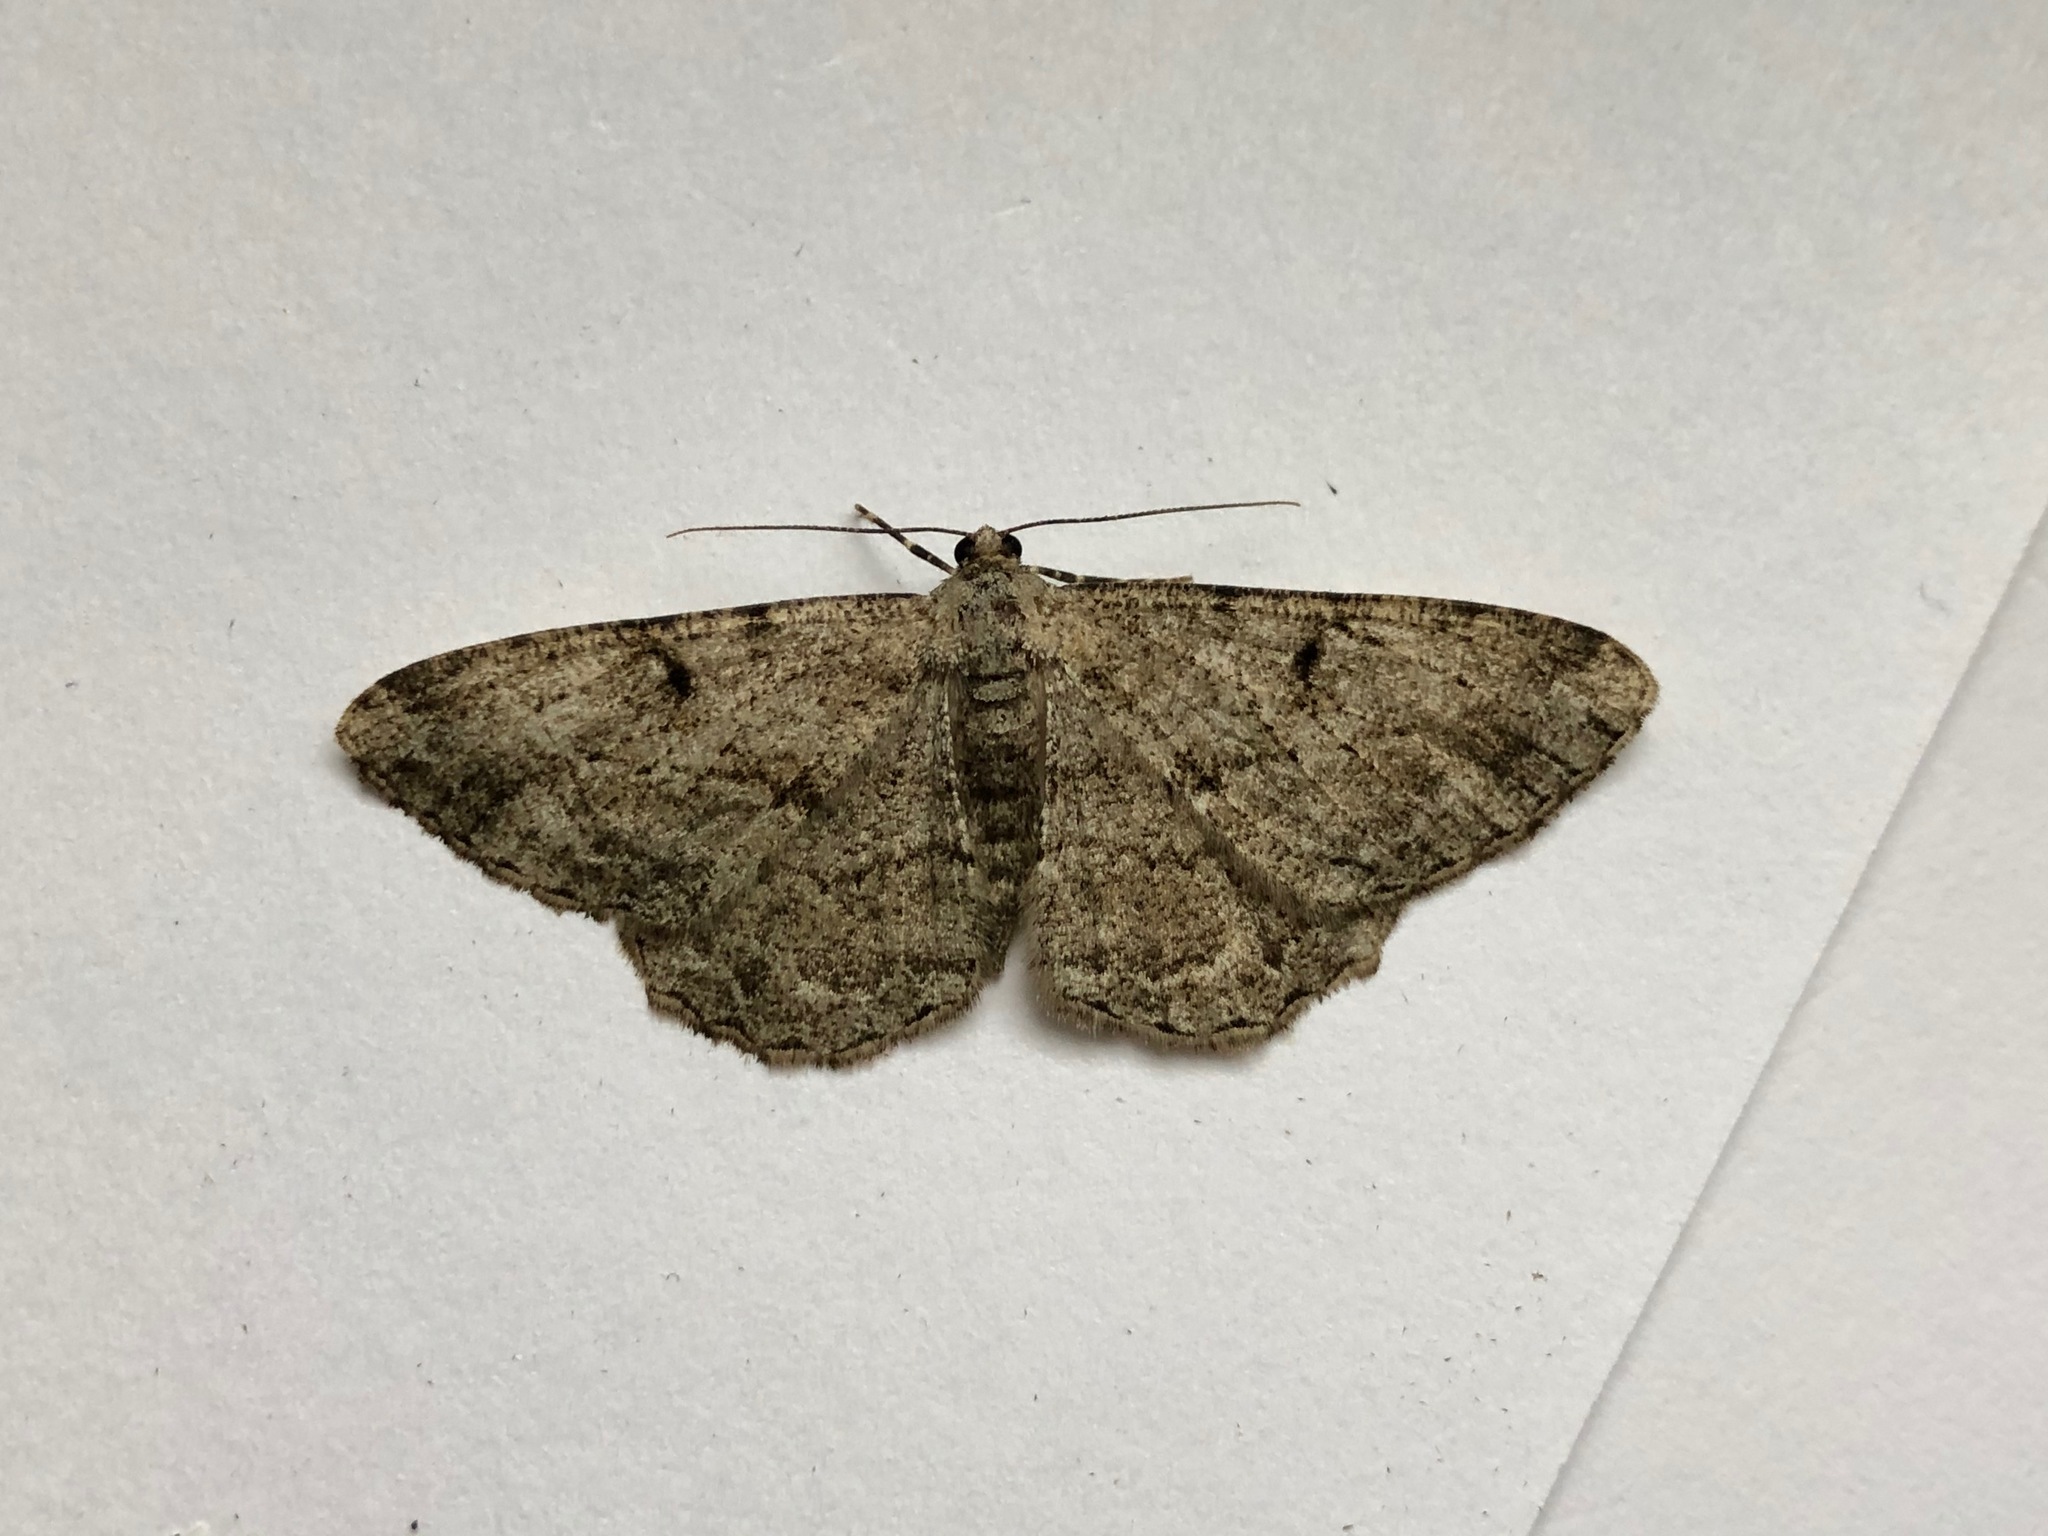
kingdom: Animalia
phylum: Arthropoda
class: Insecta
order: Lepidoptera
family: Geometridae
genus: Peribatodes
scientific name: Peribatodes rhomboidaria
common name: Willow beauty
